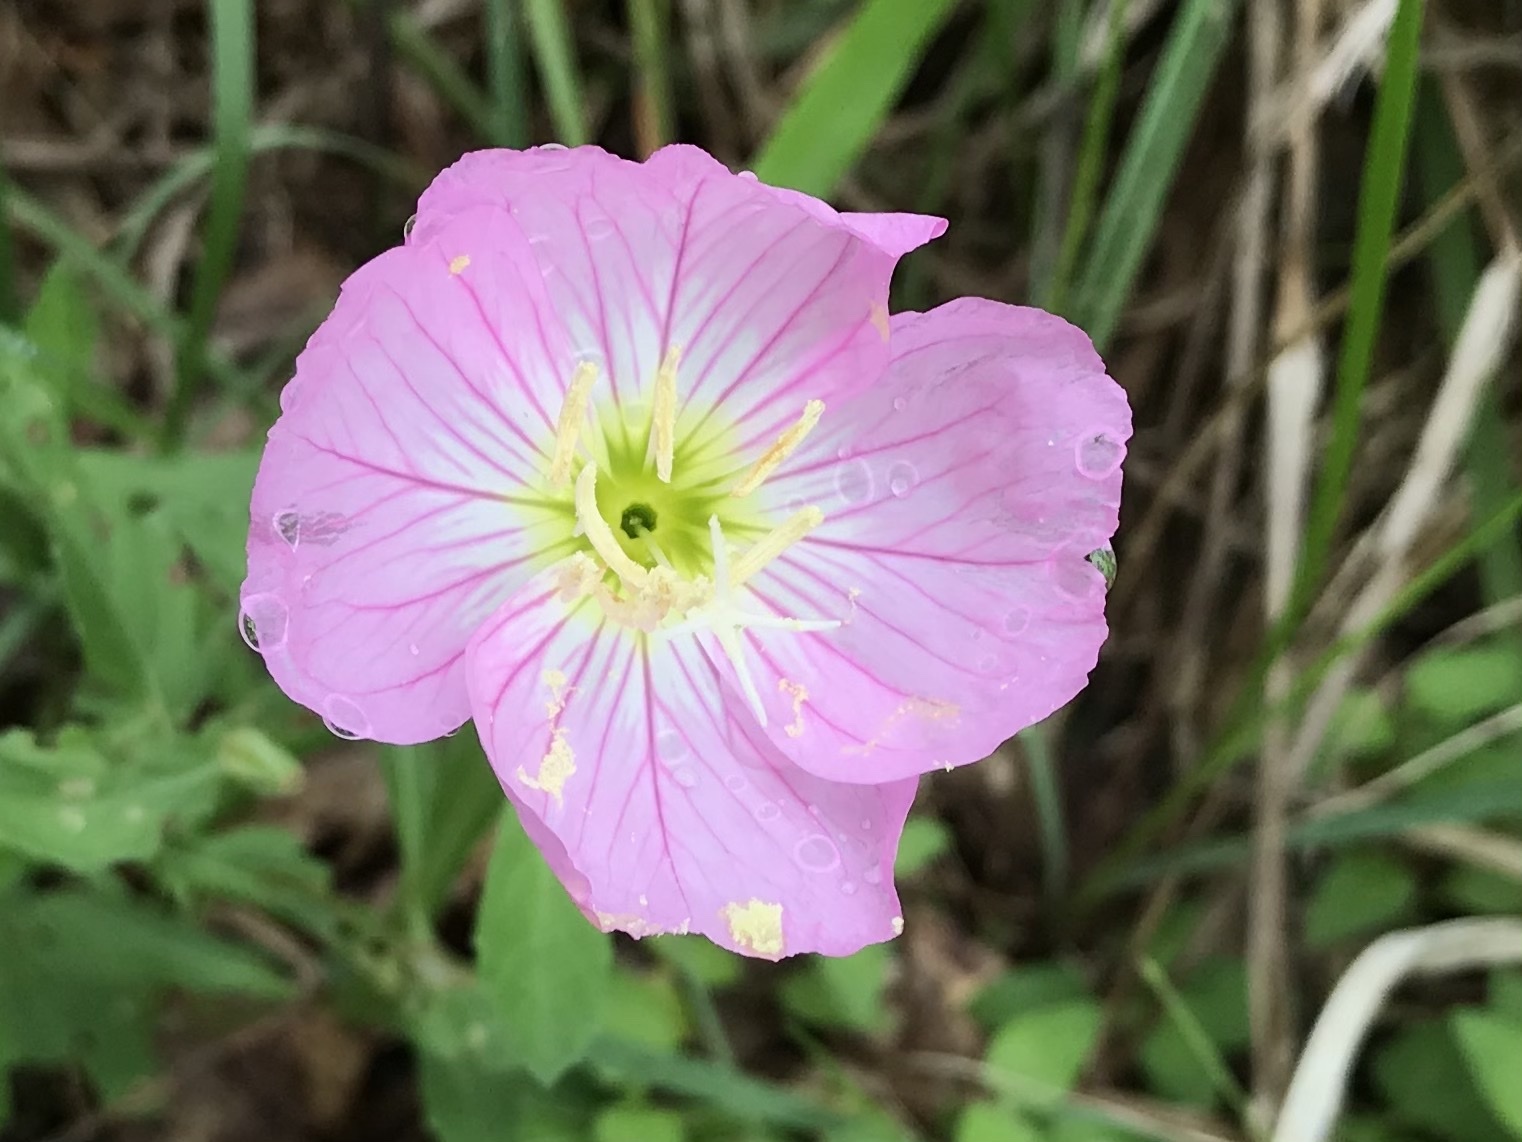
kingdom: Plantae
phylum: Tracheophyta
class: Magnoliopsida
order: Myrtales
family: Onagraceae
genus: Oenothera
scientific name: Oenothera speciosa
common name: White evening-primrose
